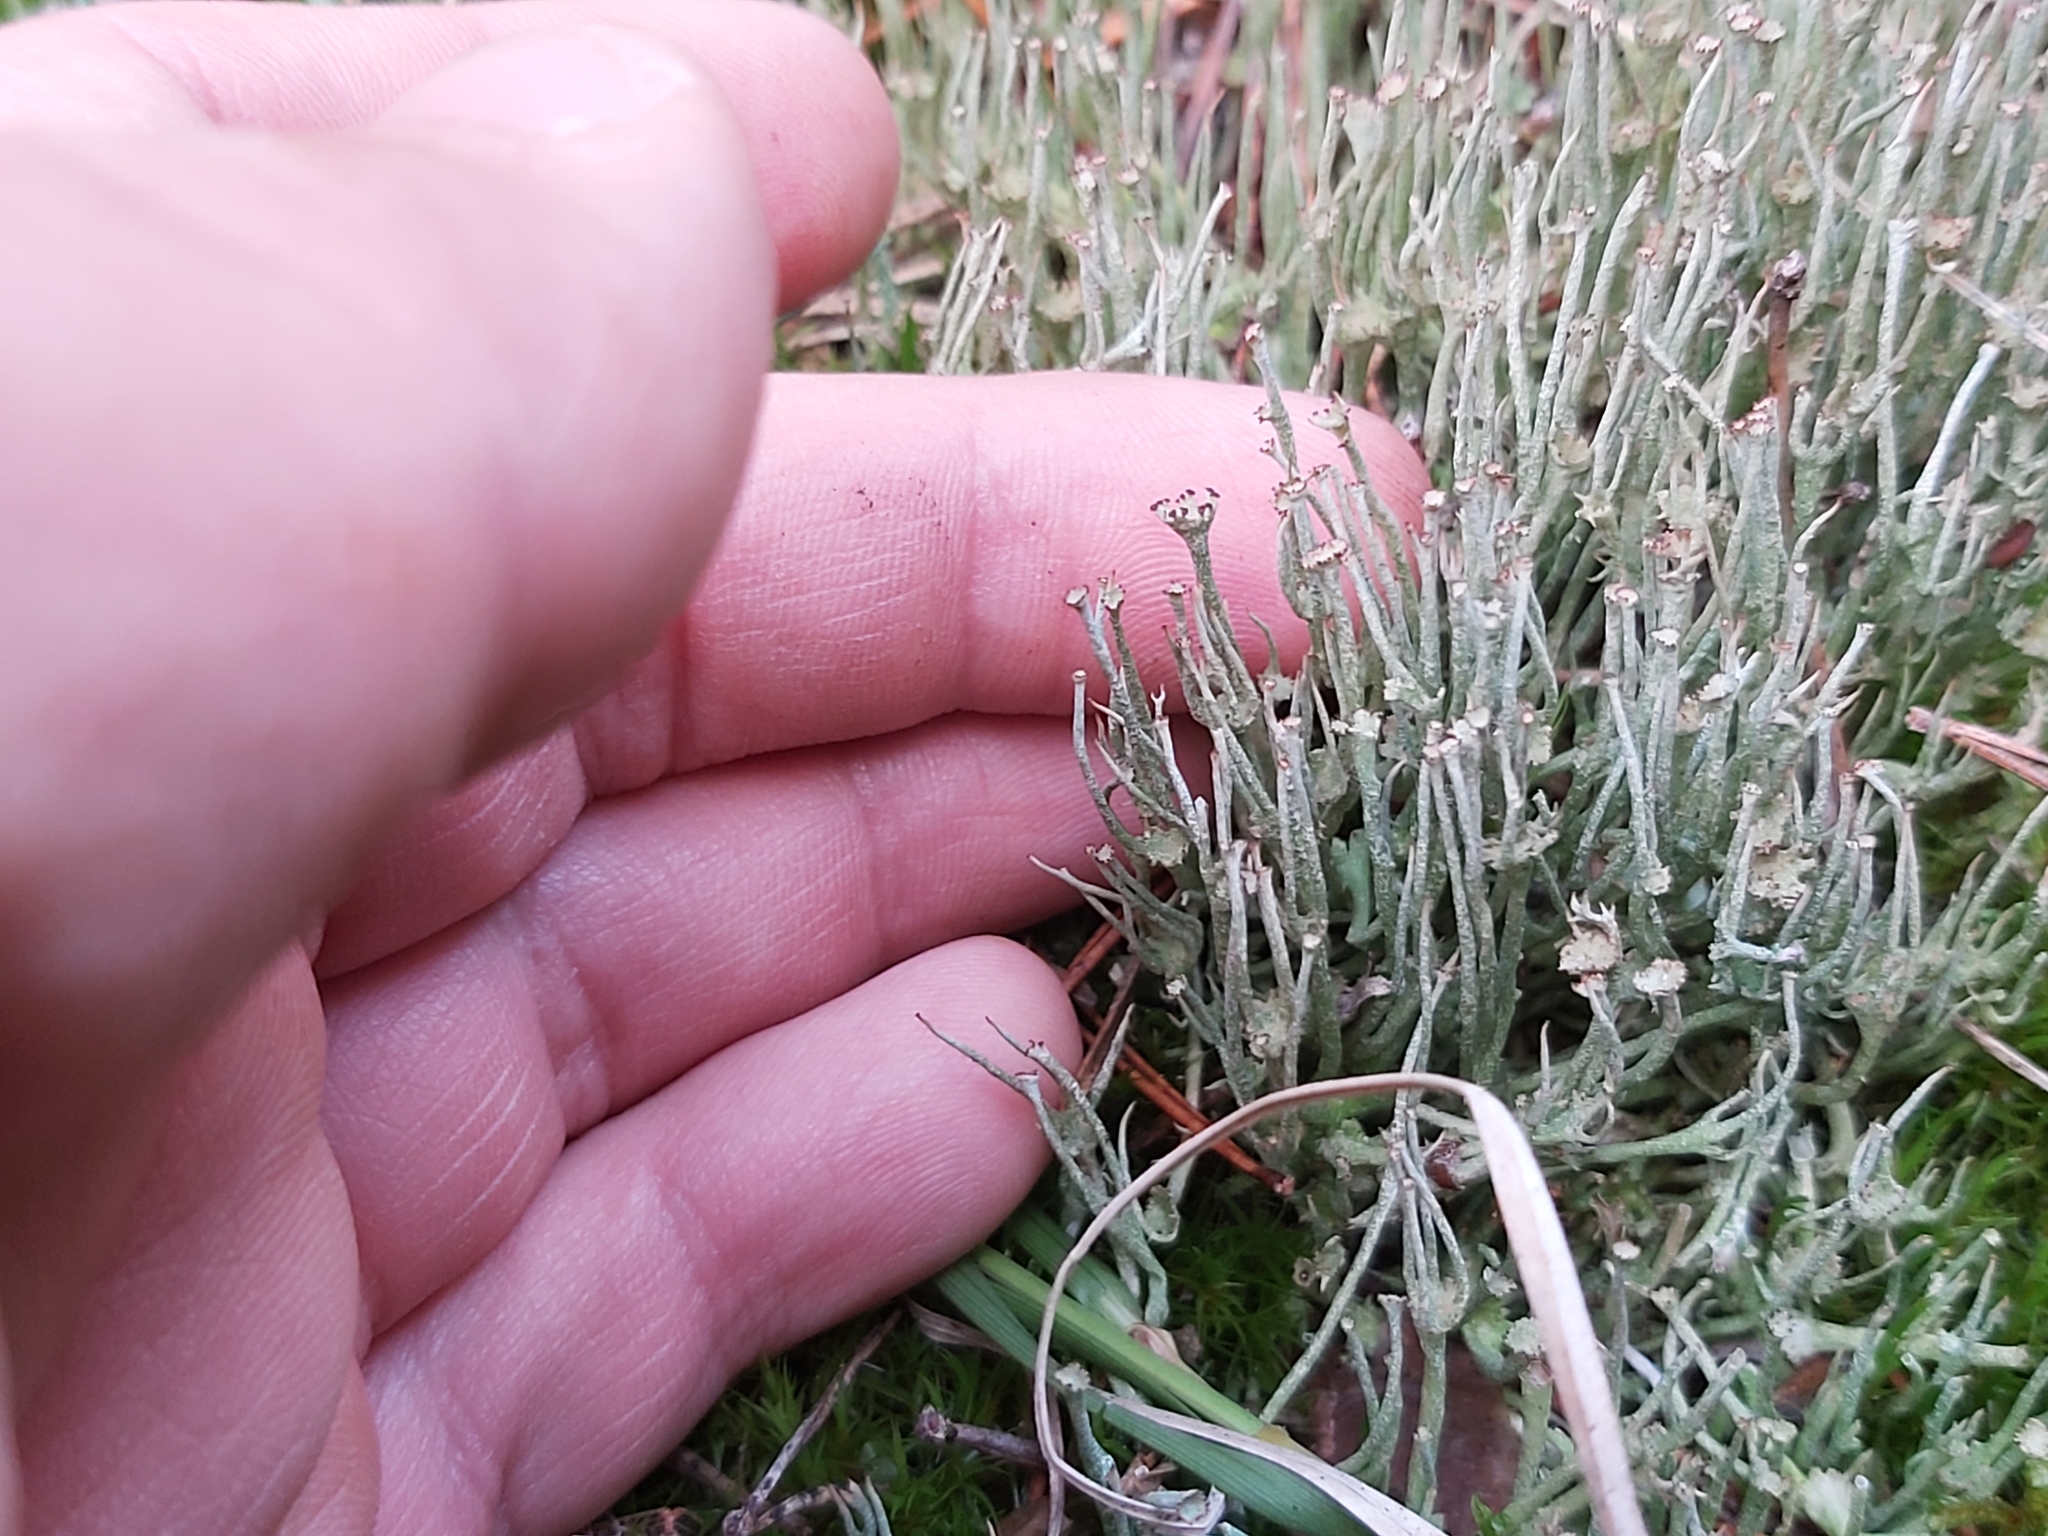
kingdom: Fungi
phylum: Ascomycota
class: Lecanoromycetes
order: Lecanorales
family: Cladoniaceae
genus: Cladonia
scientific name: Cladonia gracilis
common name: Smooth clad lichen
